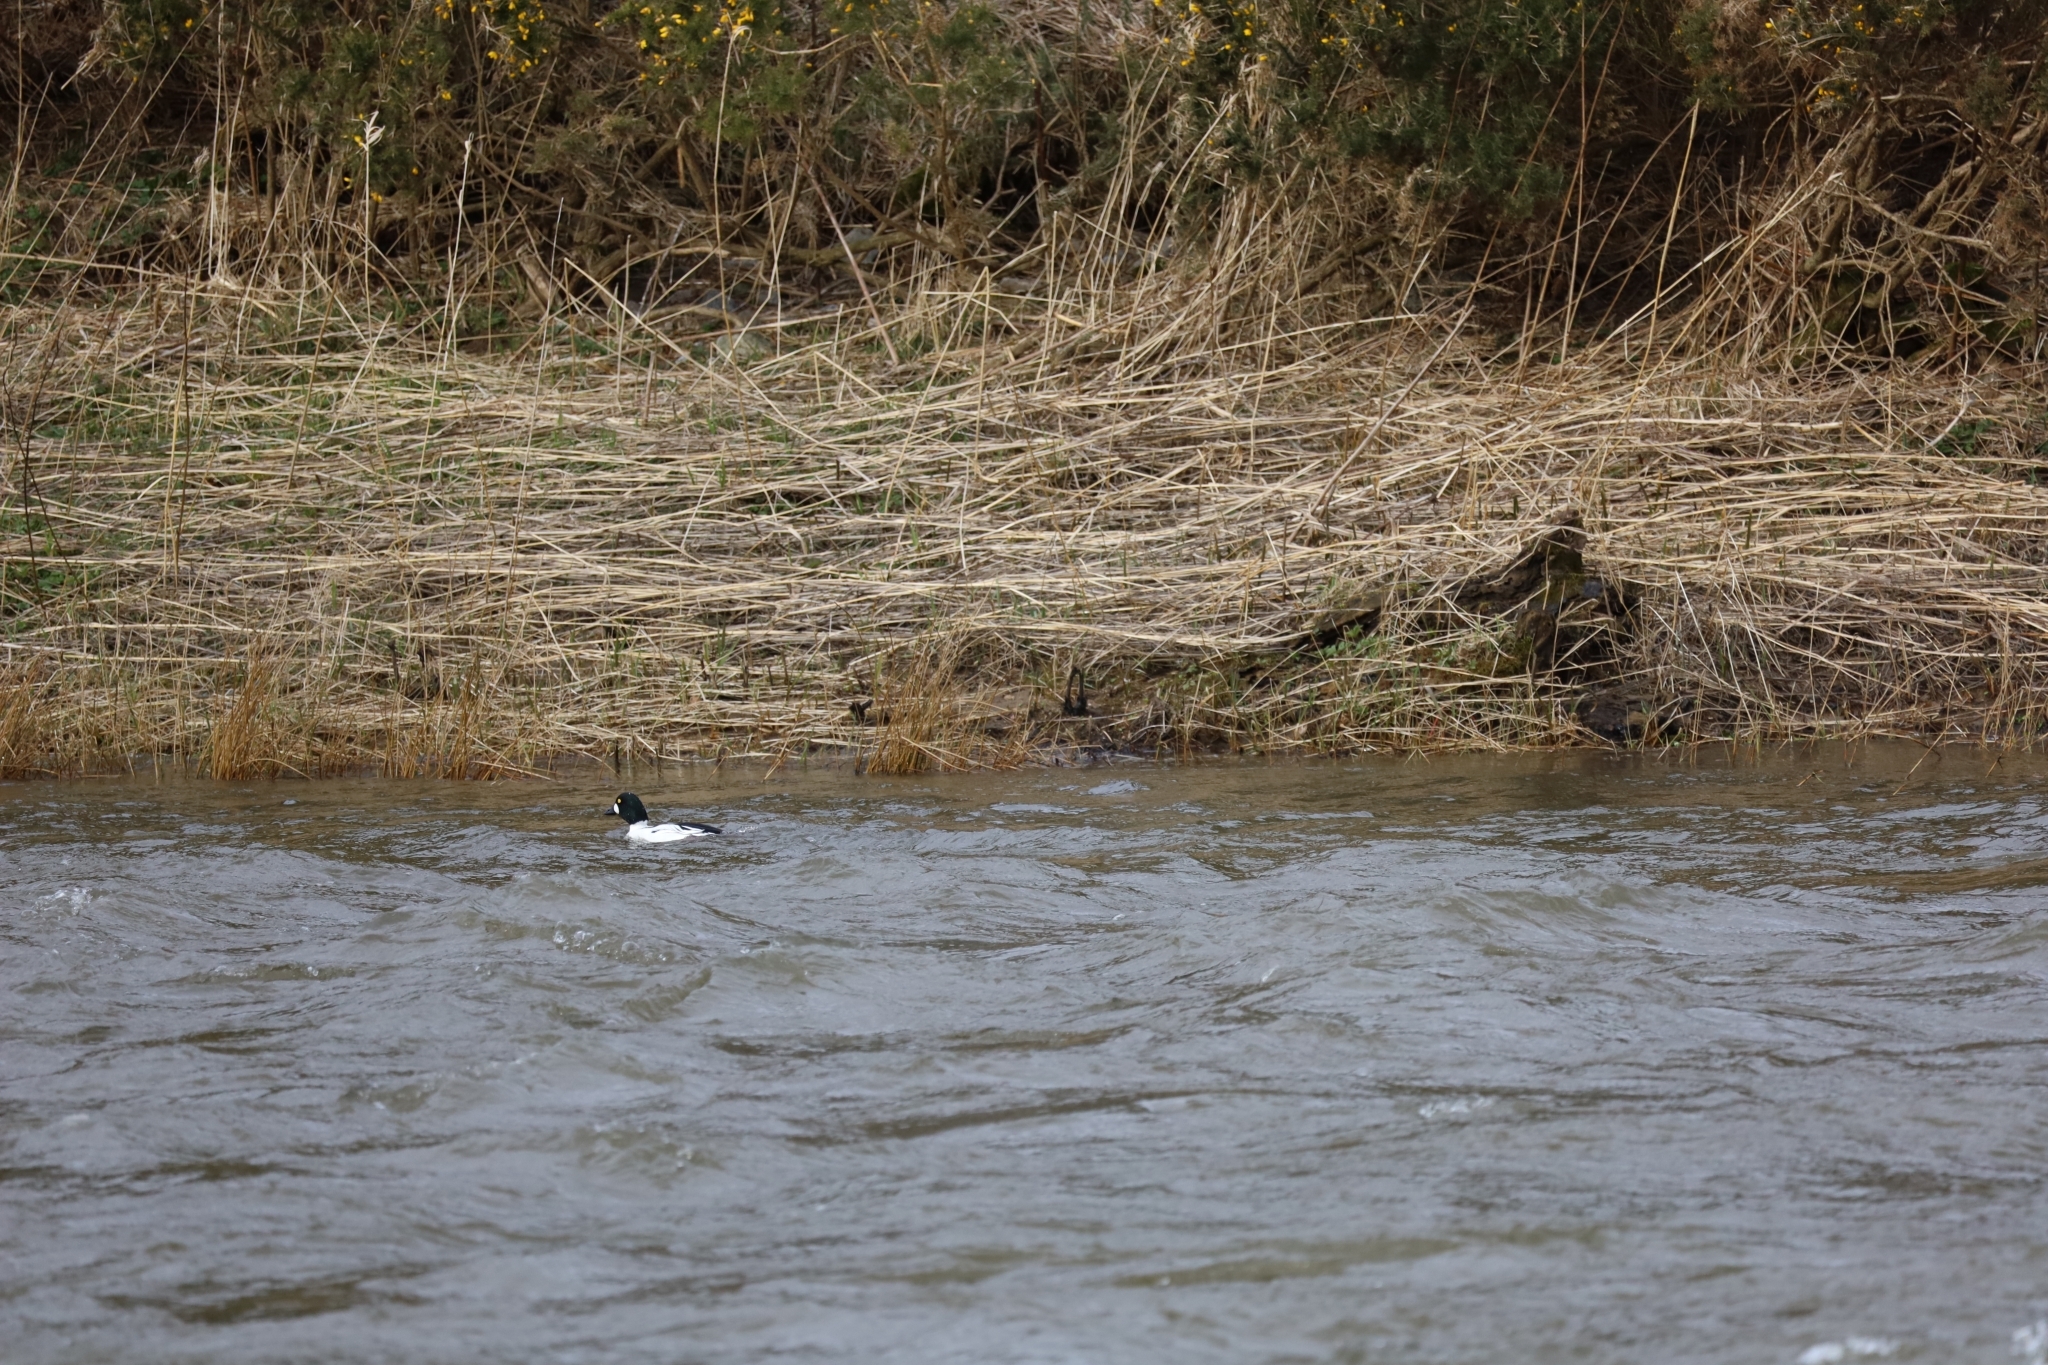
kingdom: Animalia
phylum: Chordata
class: Aves
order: Anseriformes
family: Anatidae
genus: Bucephala
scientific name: Bucephala clangula
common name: Common goldeneye
